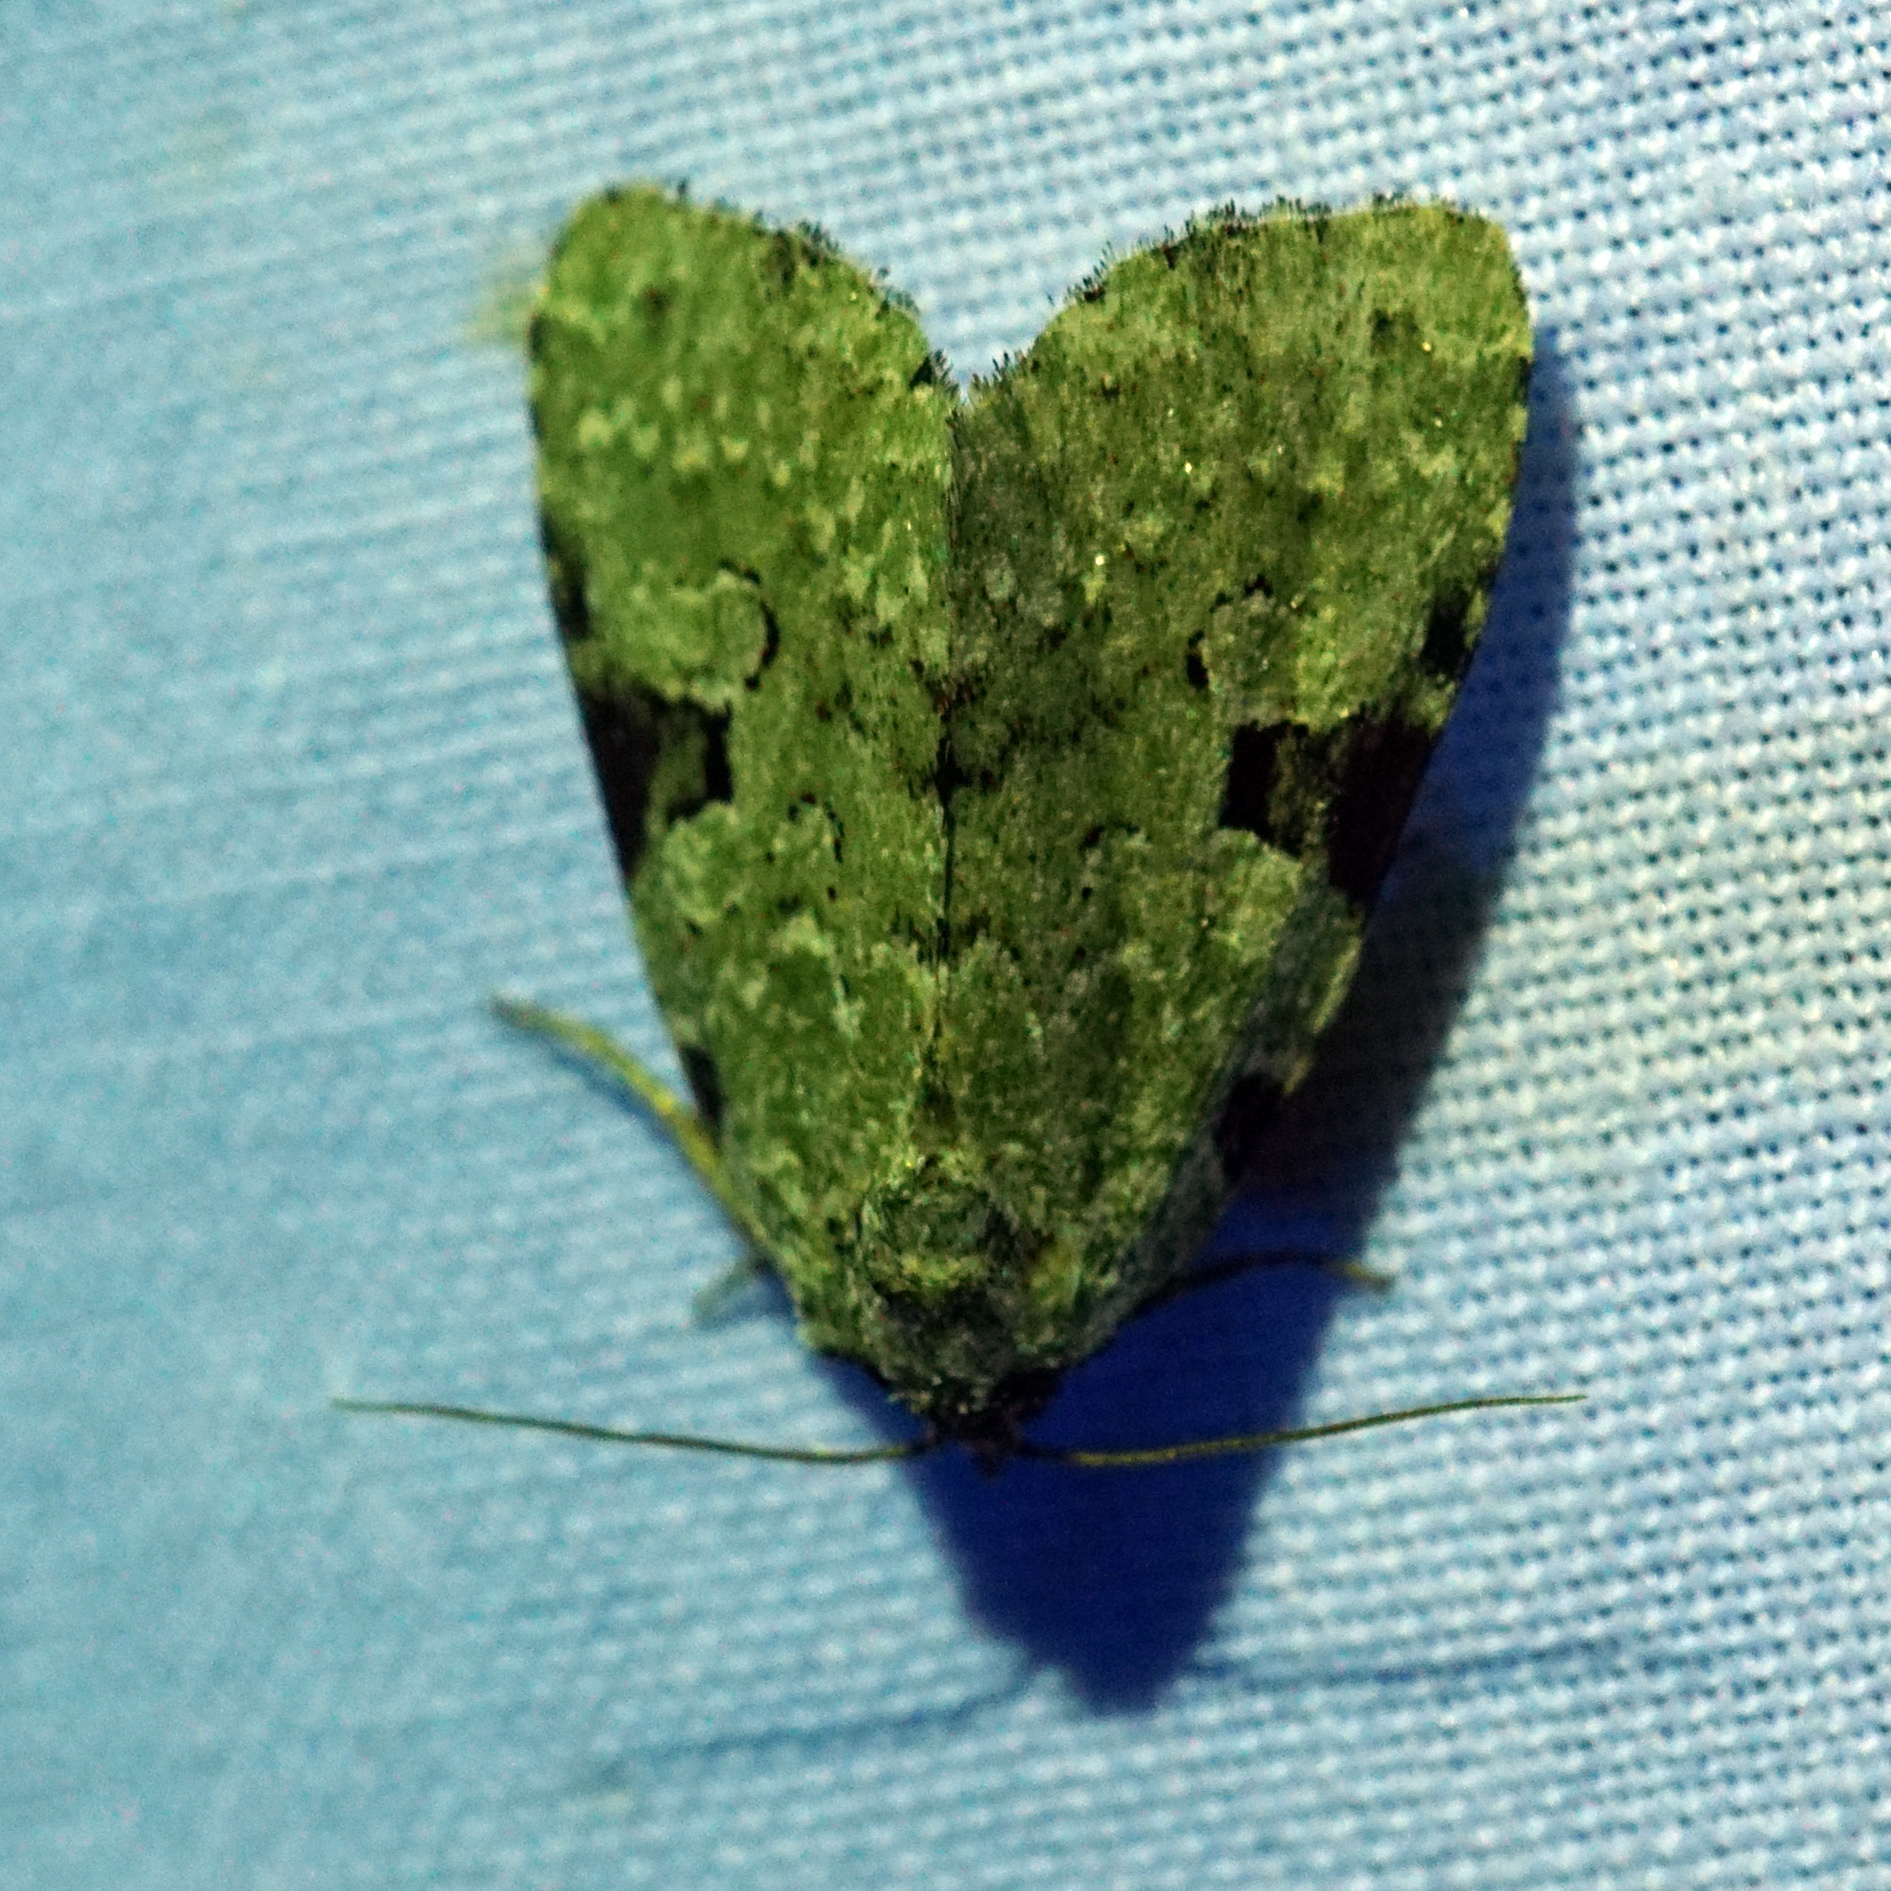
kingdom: Animalia
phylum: Arthropoda
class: Insecta
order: Lepidoptera
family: Noctuidae
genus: Leuconycta
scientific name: Leuconycta diphteroides
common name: Green leuconycta moth
